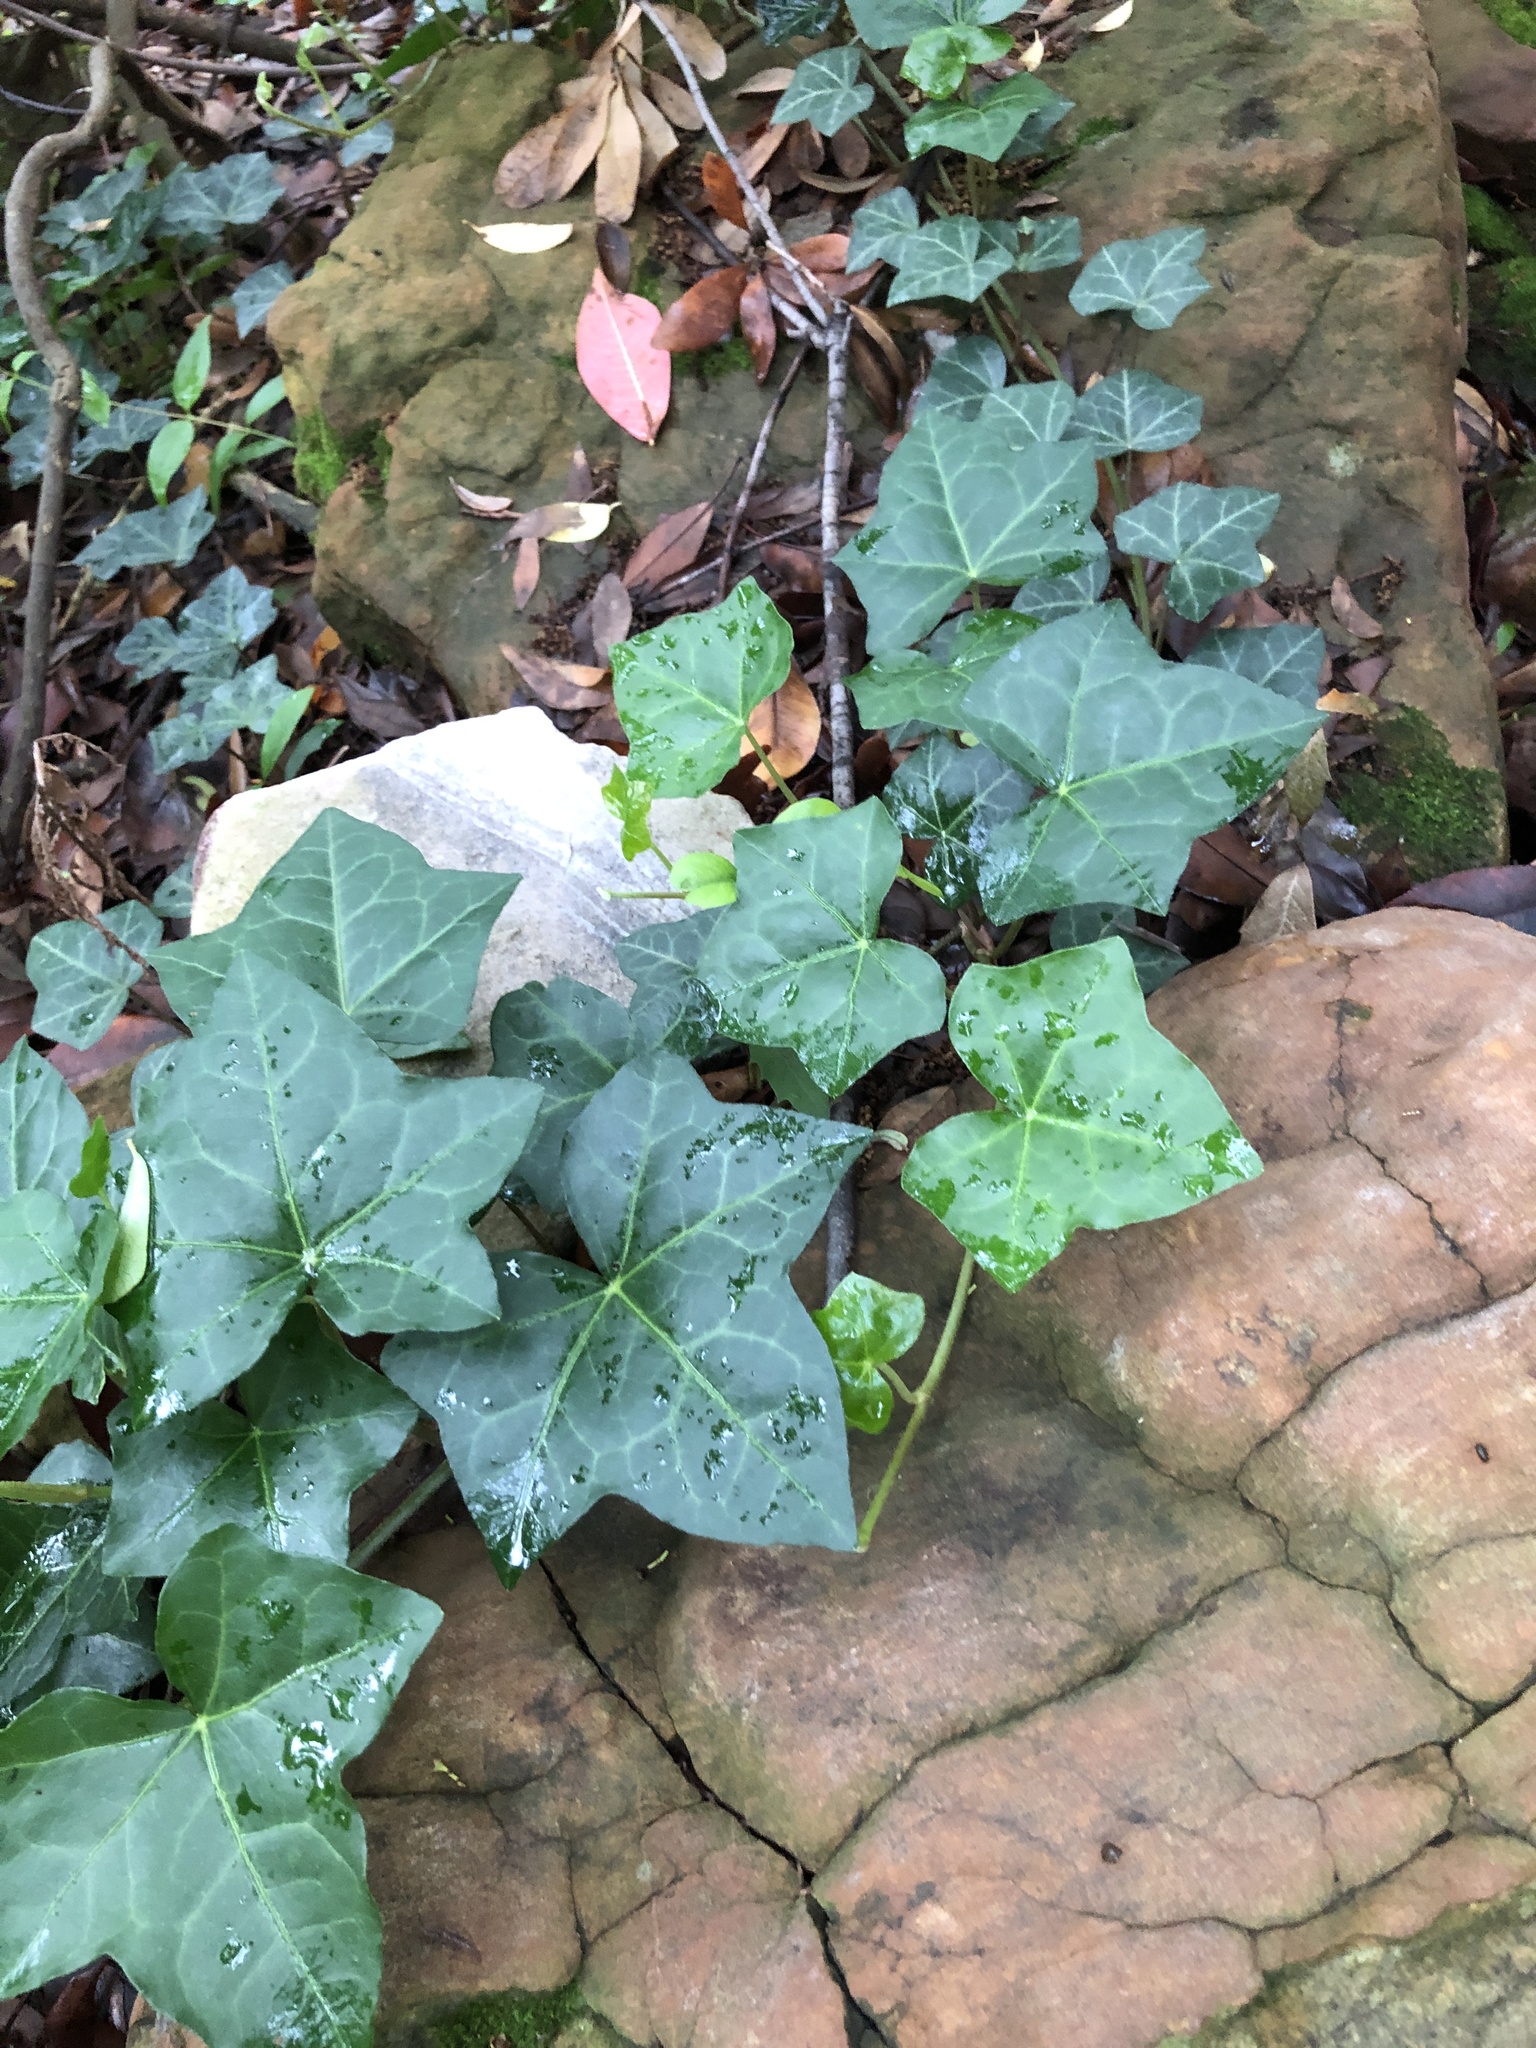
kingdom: Plantae
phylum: Tracheophyta
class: Magnoliopsida
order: Apiales
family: Araliaceae
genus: Hedera
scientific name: Hedera helix
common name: Ivy
